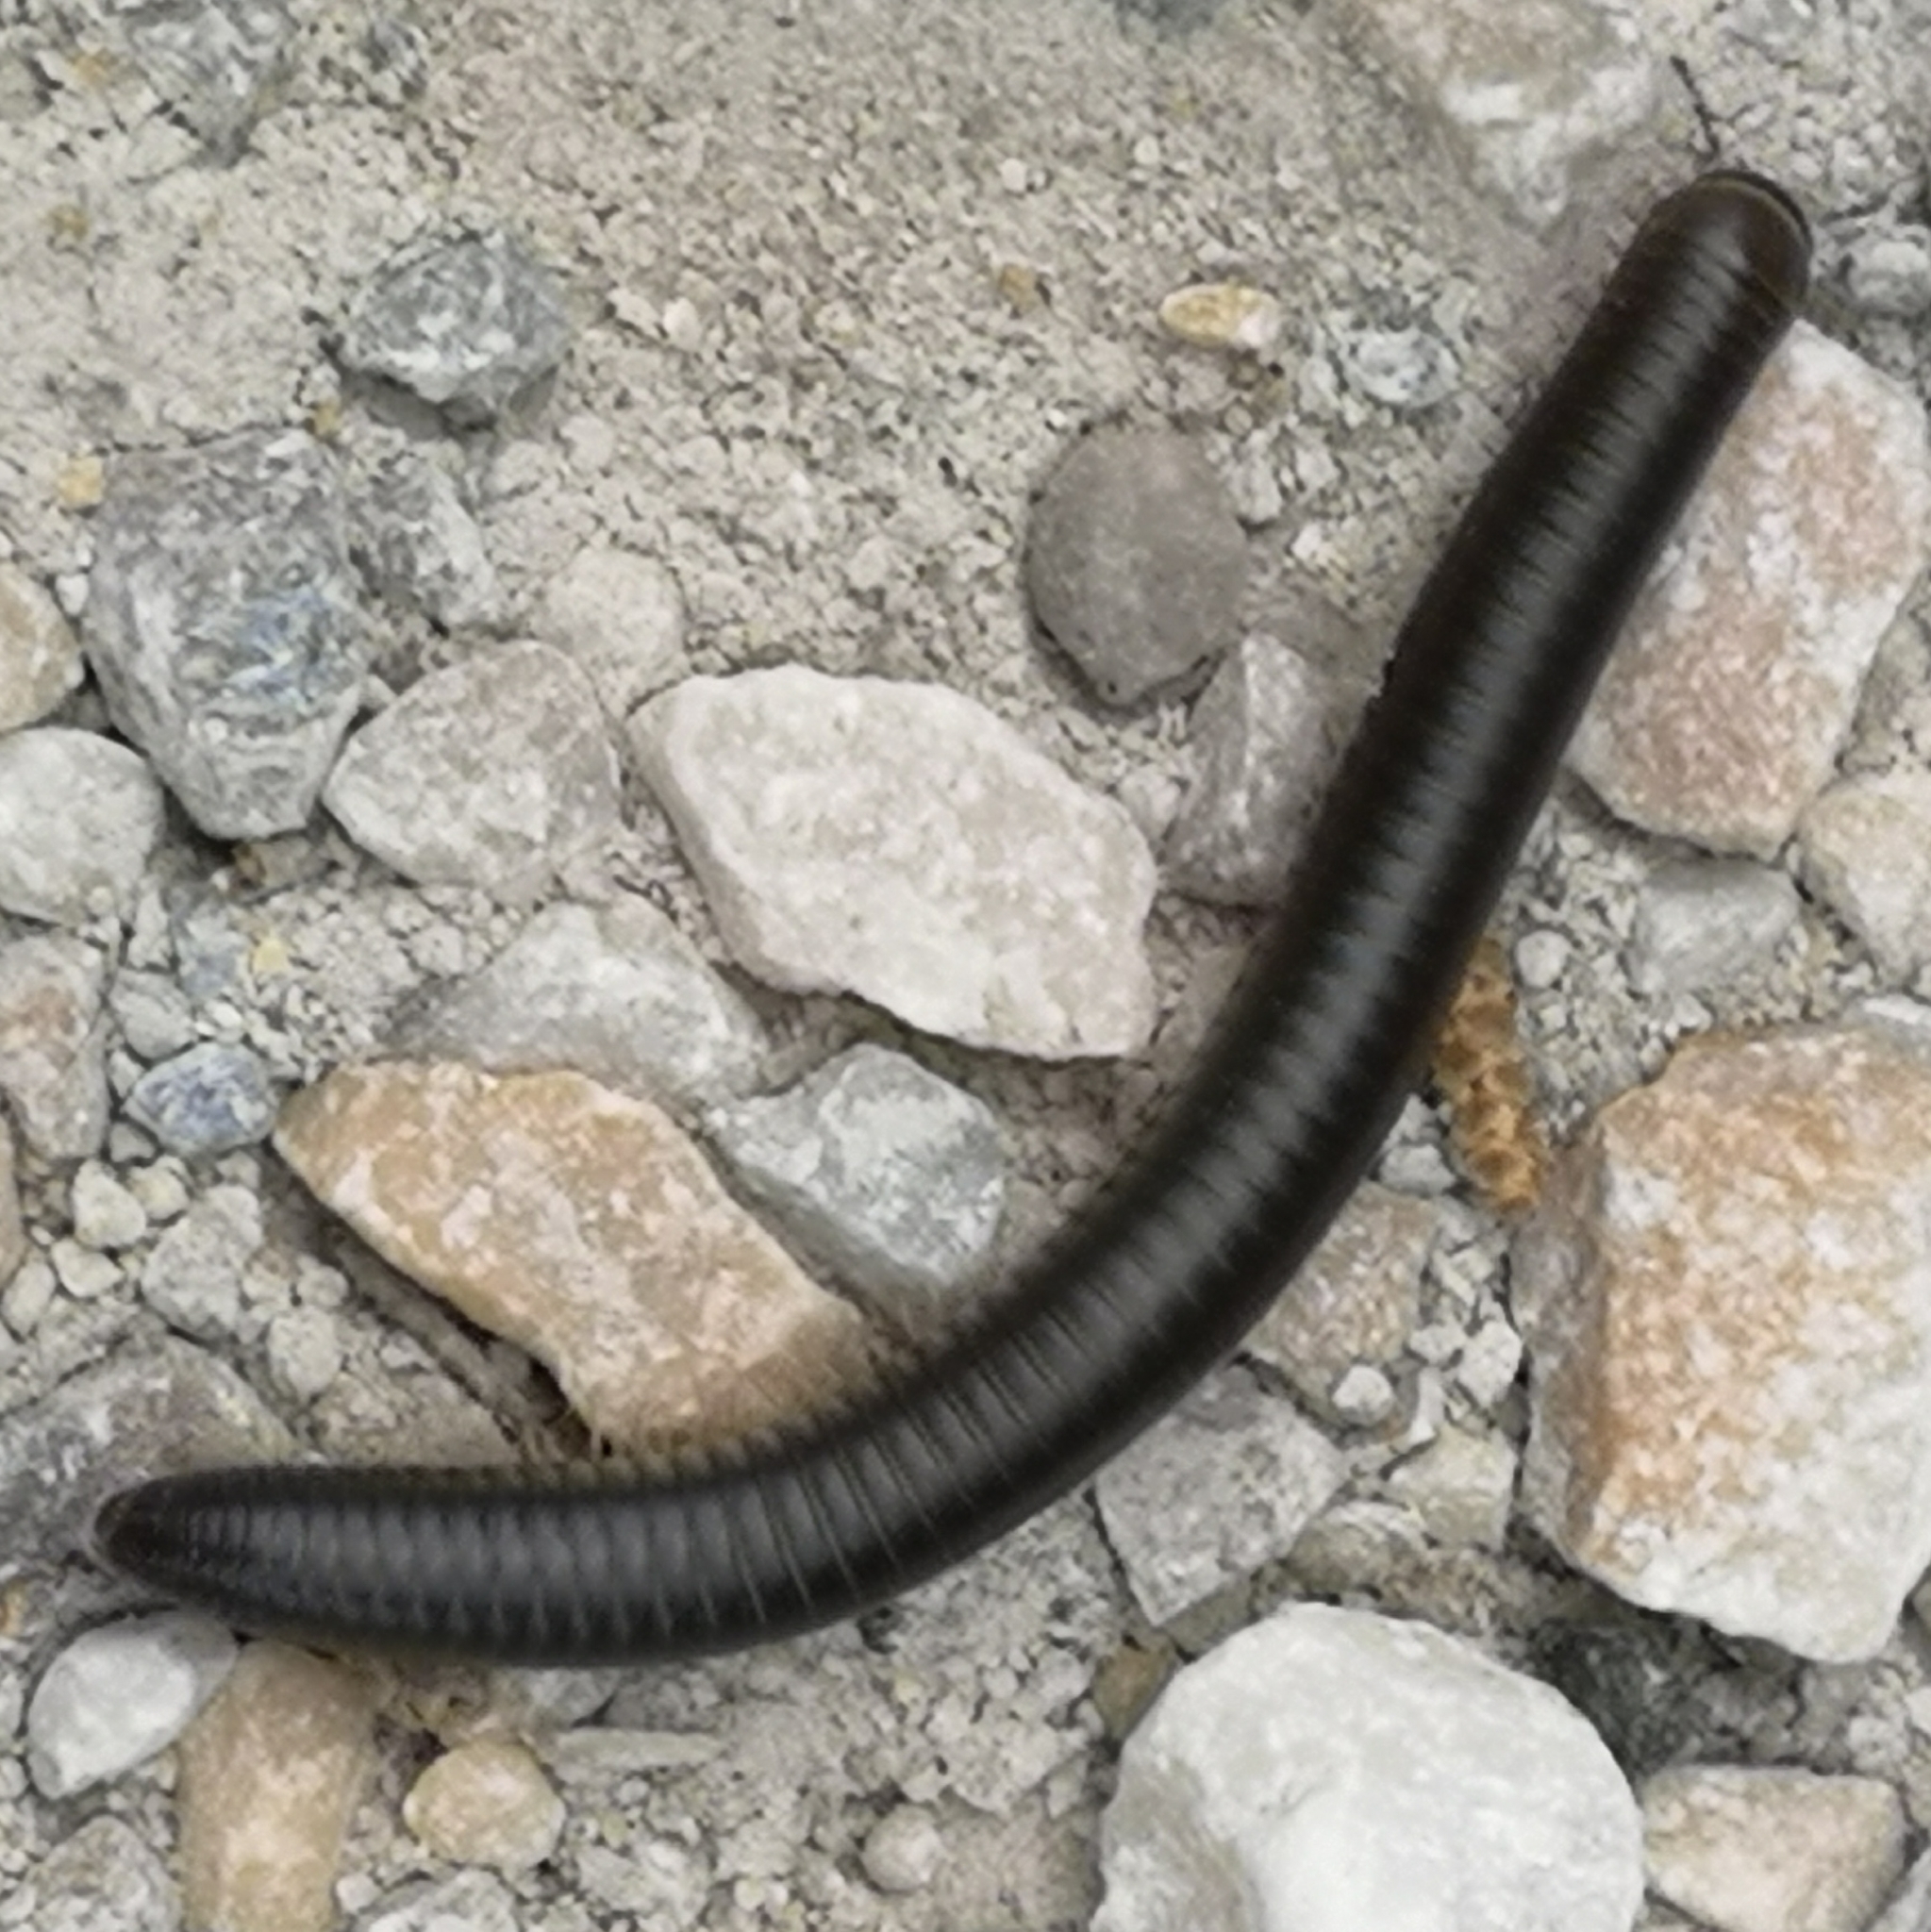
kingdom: Animalia
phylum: Arthropoda
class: Diplopoda
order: Julida
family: Julidae
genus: Pachyiulus
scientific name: Pachyiulus flavipes
